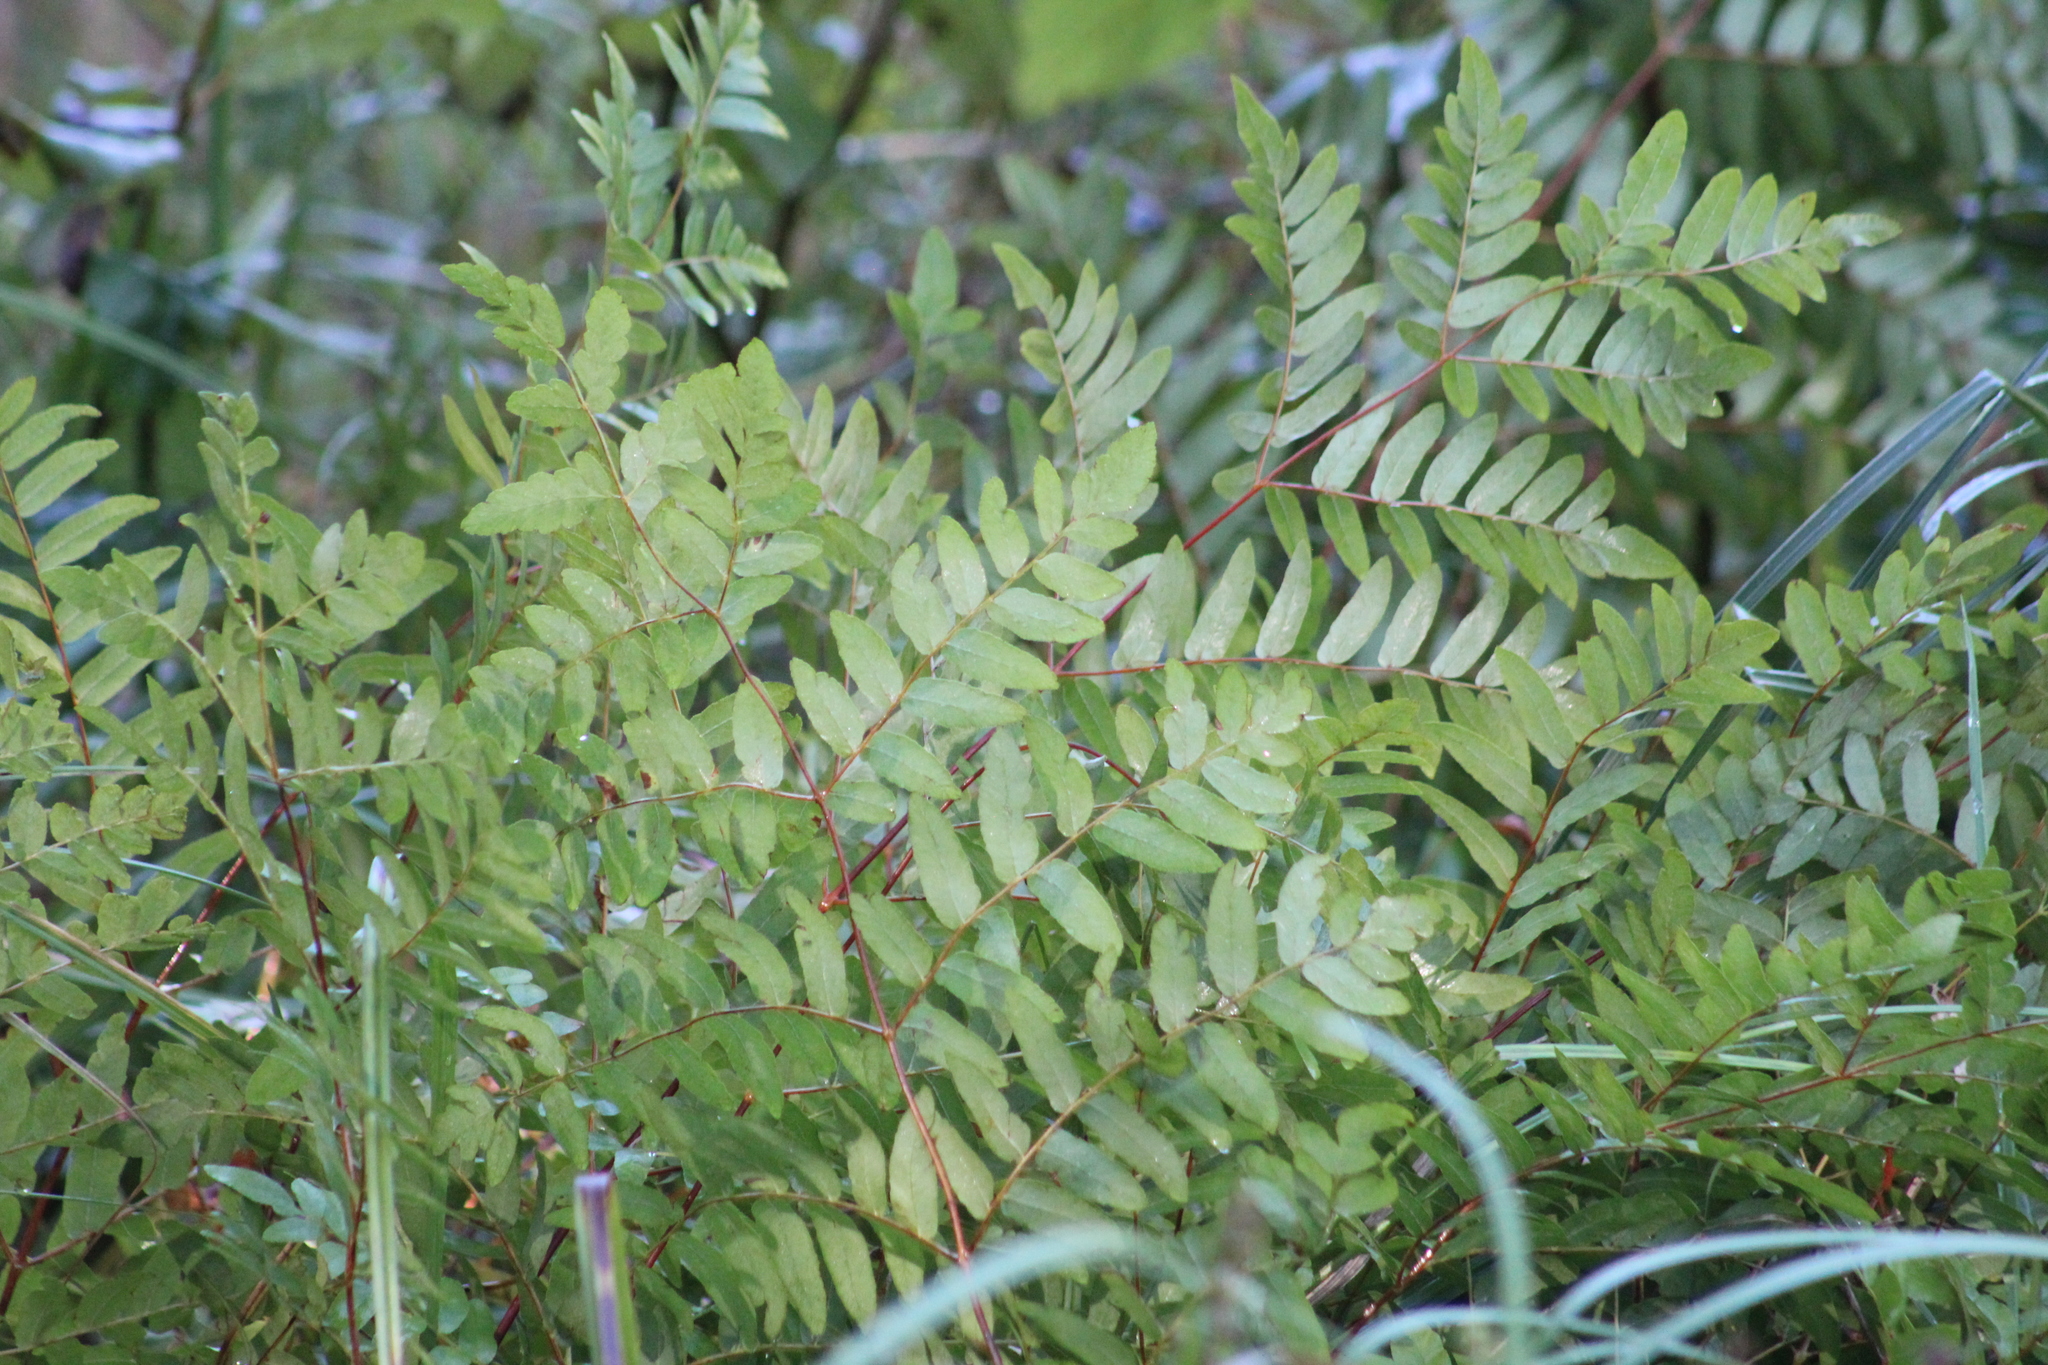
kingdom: Plantae
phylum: Tracheophyta
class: Polypodiopsida
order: Osmundales
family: Osmundaceae
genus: Osmunda
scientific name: Osmunda spectabilis
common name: American royal fern
